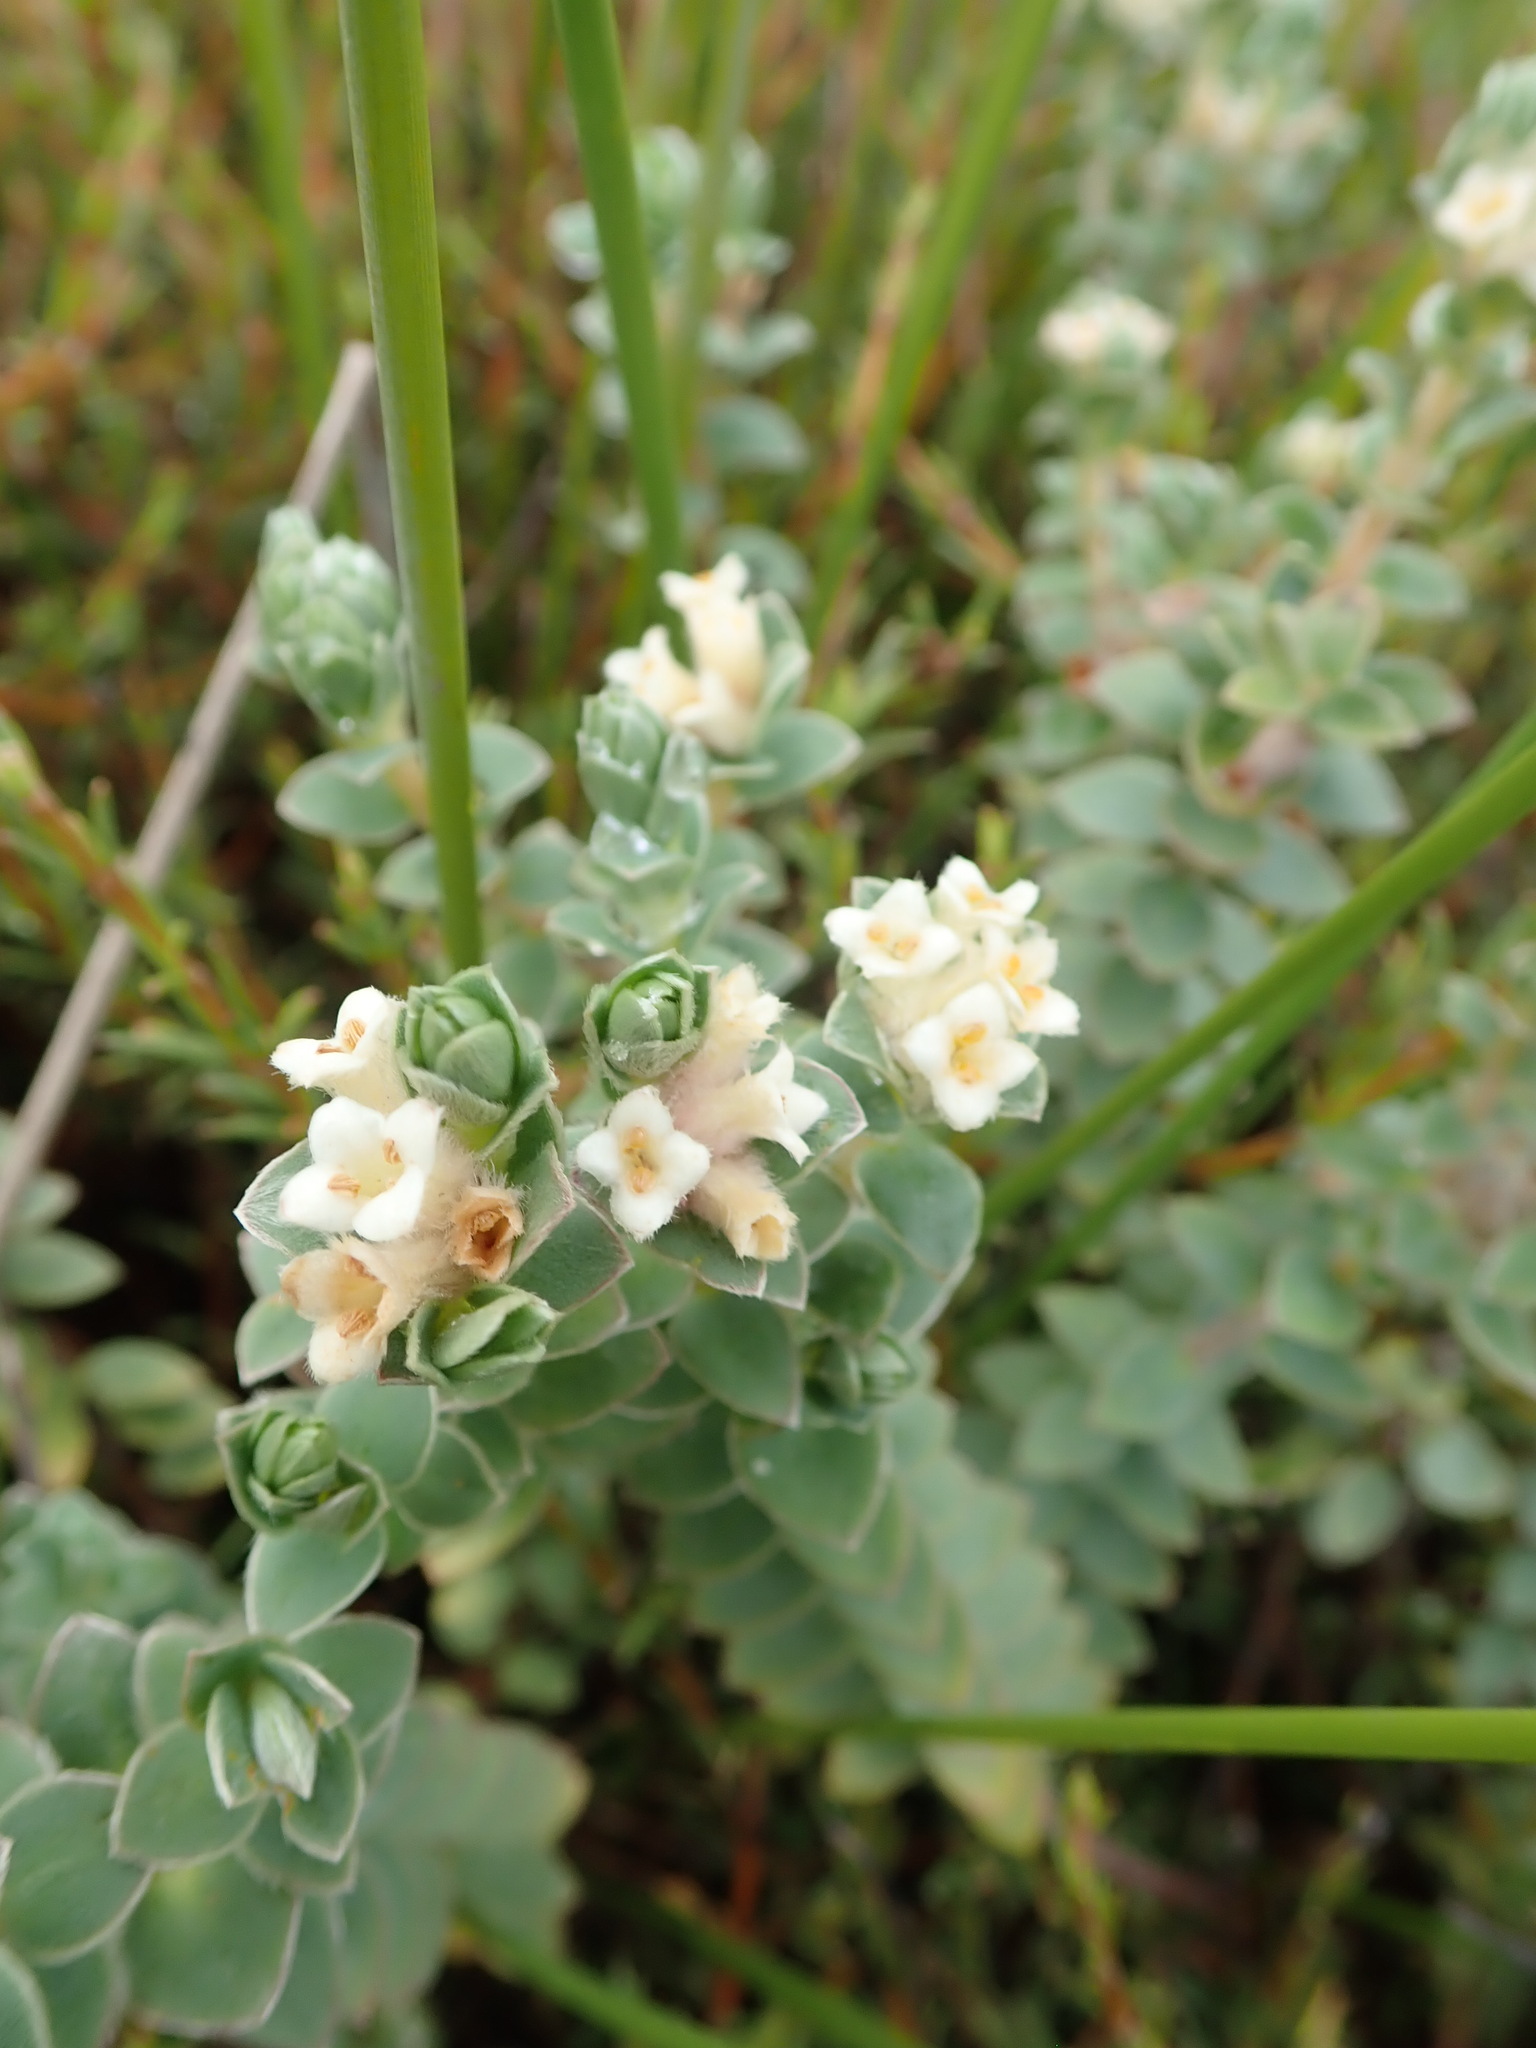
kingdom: Plantae
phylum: Tracheophyta
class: Magnoliopsida
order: Malvales
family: Thymelaeaceae
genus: Pimelea
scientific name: Pimelea villosa
